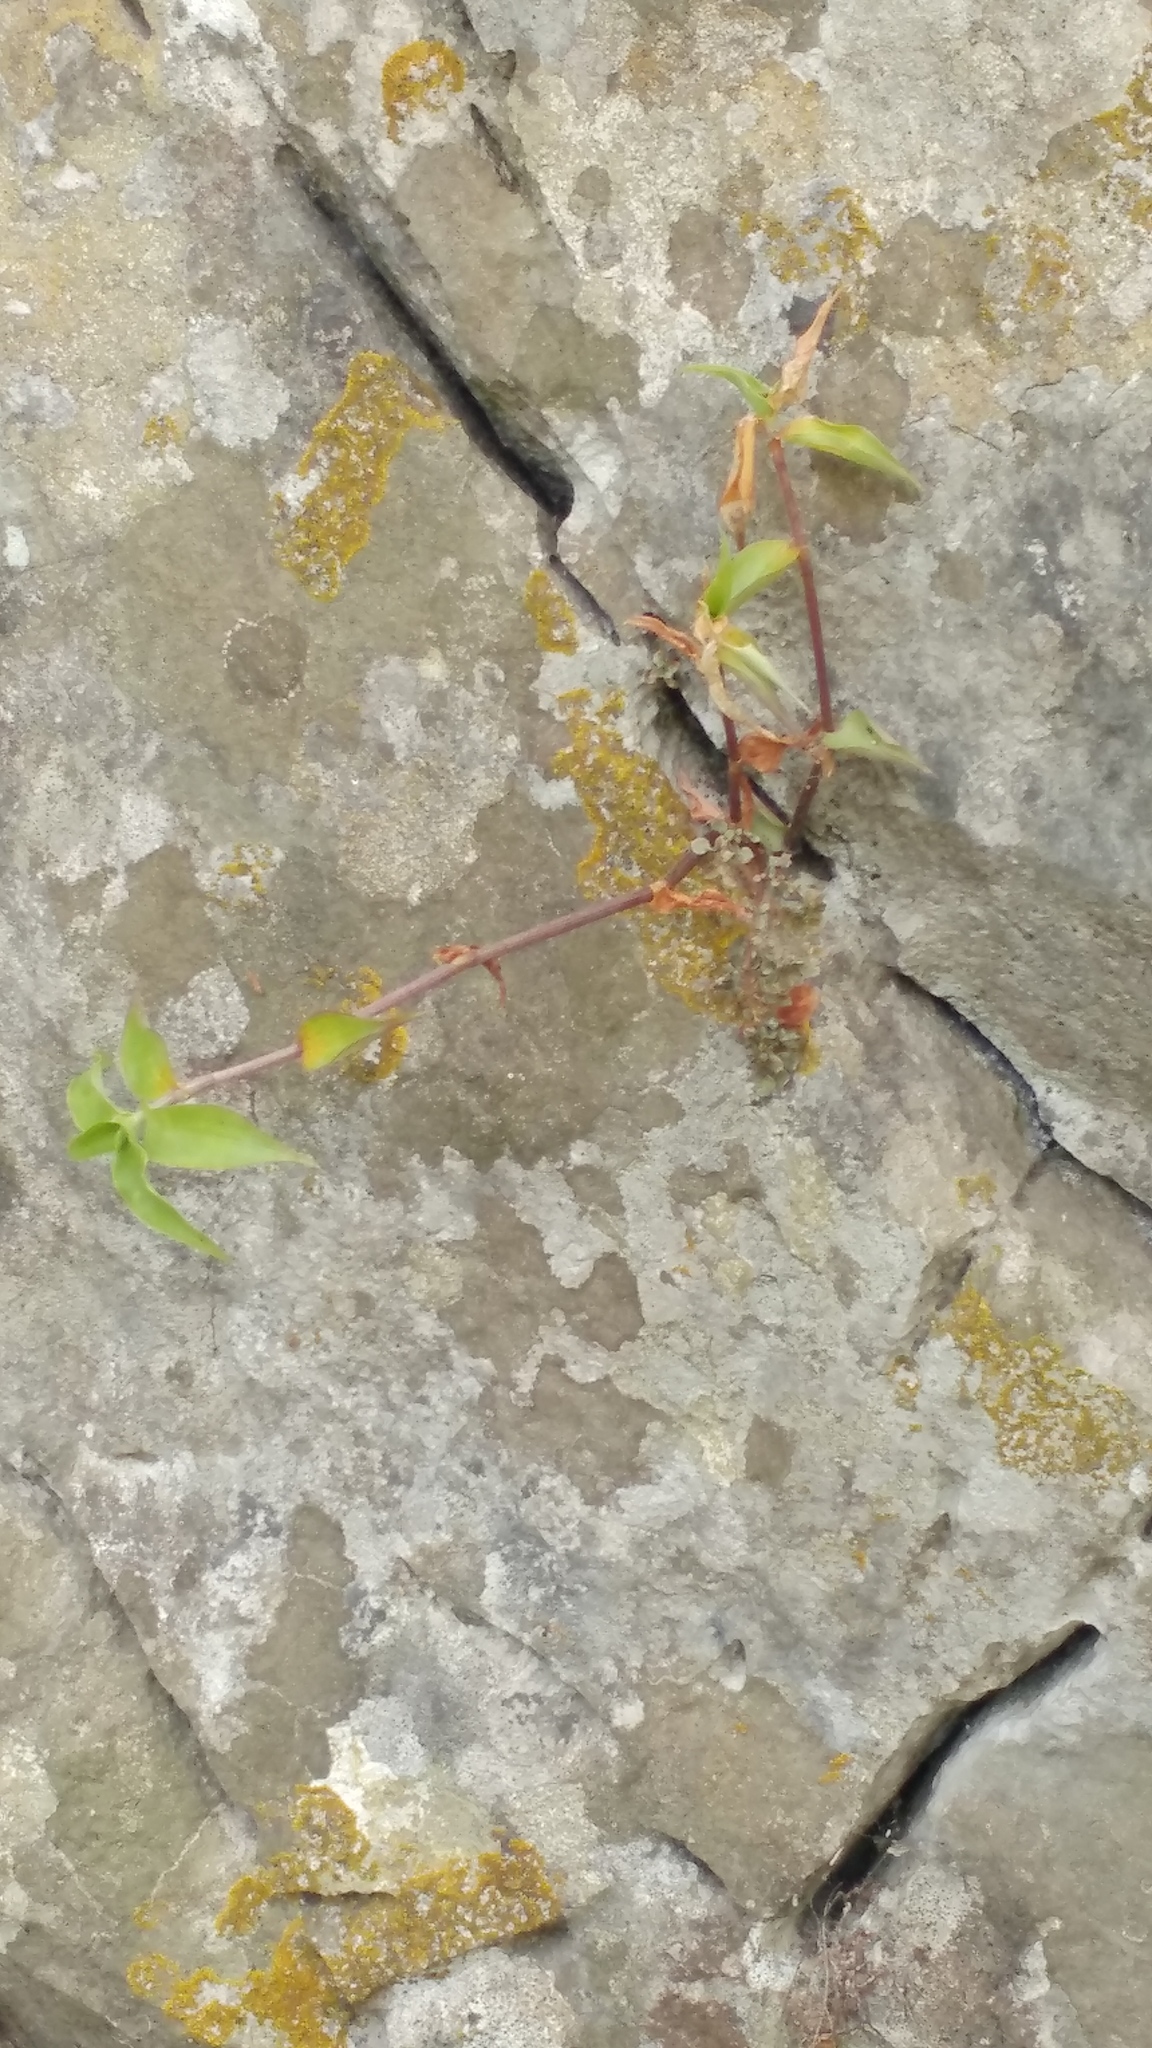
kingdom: Plantae
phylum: Tracheophyta
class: Liliopsida
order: Commelinales
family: Commelinaceae
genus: Callisia
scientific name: Callisia repens
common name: Creeping inchplant
